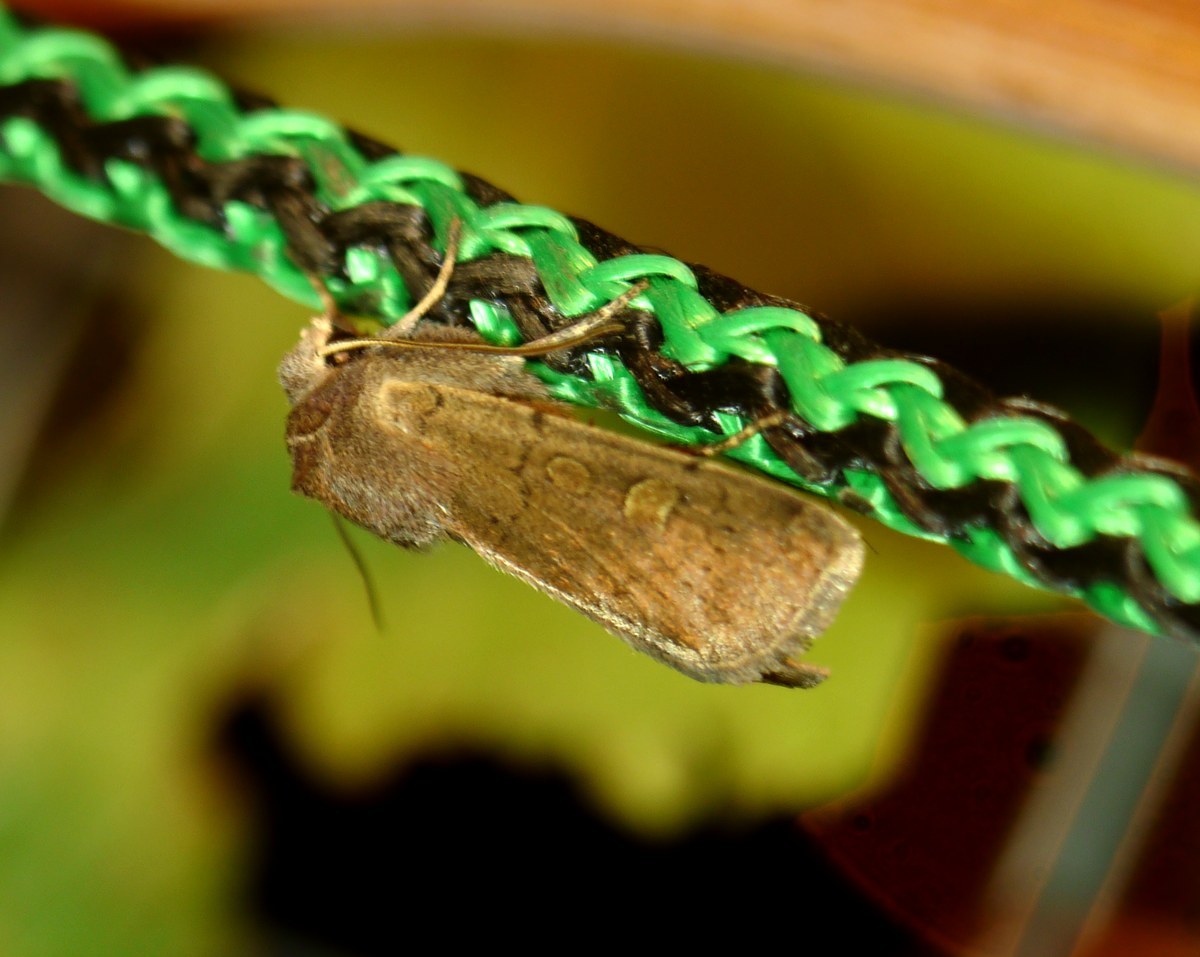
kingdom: Animalia
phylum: Arthropoda
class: Insecta
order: Lepidoptera
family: Noctuidae
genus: Xestia
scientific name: Xestia xanthographa
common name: Square-spot rustic
